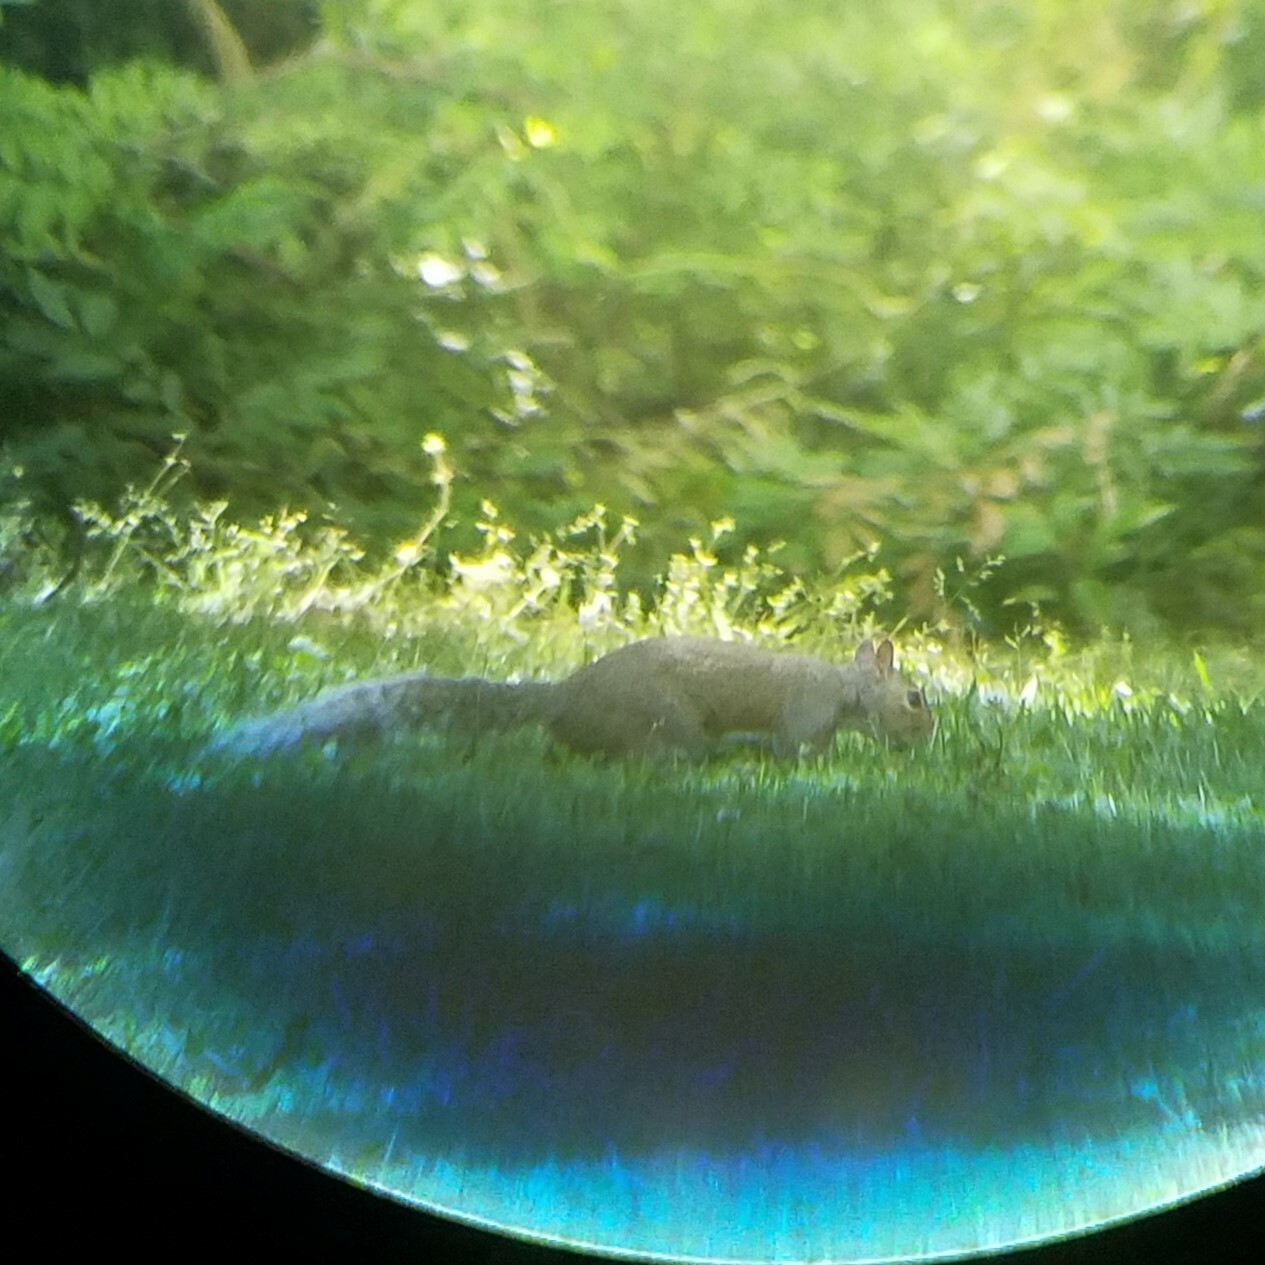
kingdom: Animalia
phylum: Chordata
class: Mammalia
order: Rodentia
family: Sciuridae
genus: Sciurus
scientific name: Sciurus carolinensis
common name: Eastern gray squirrel
